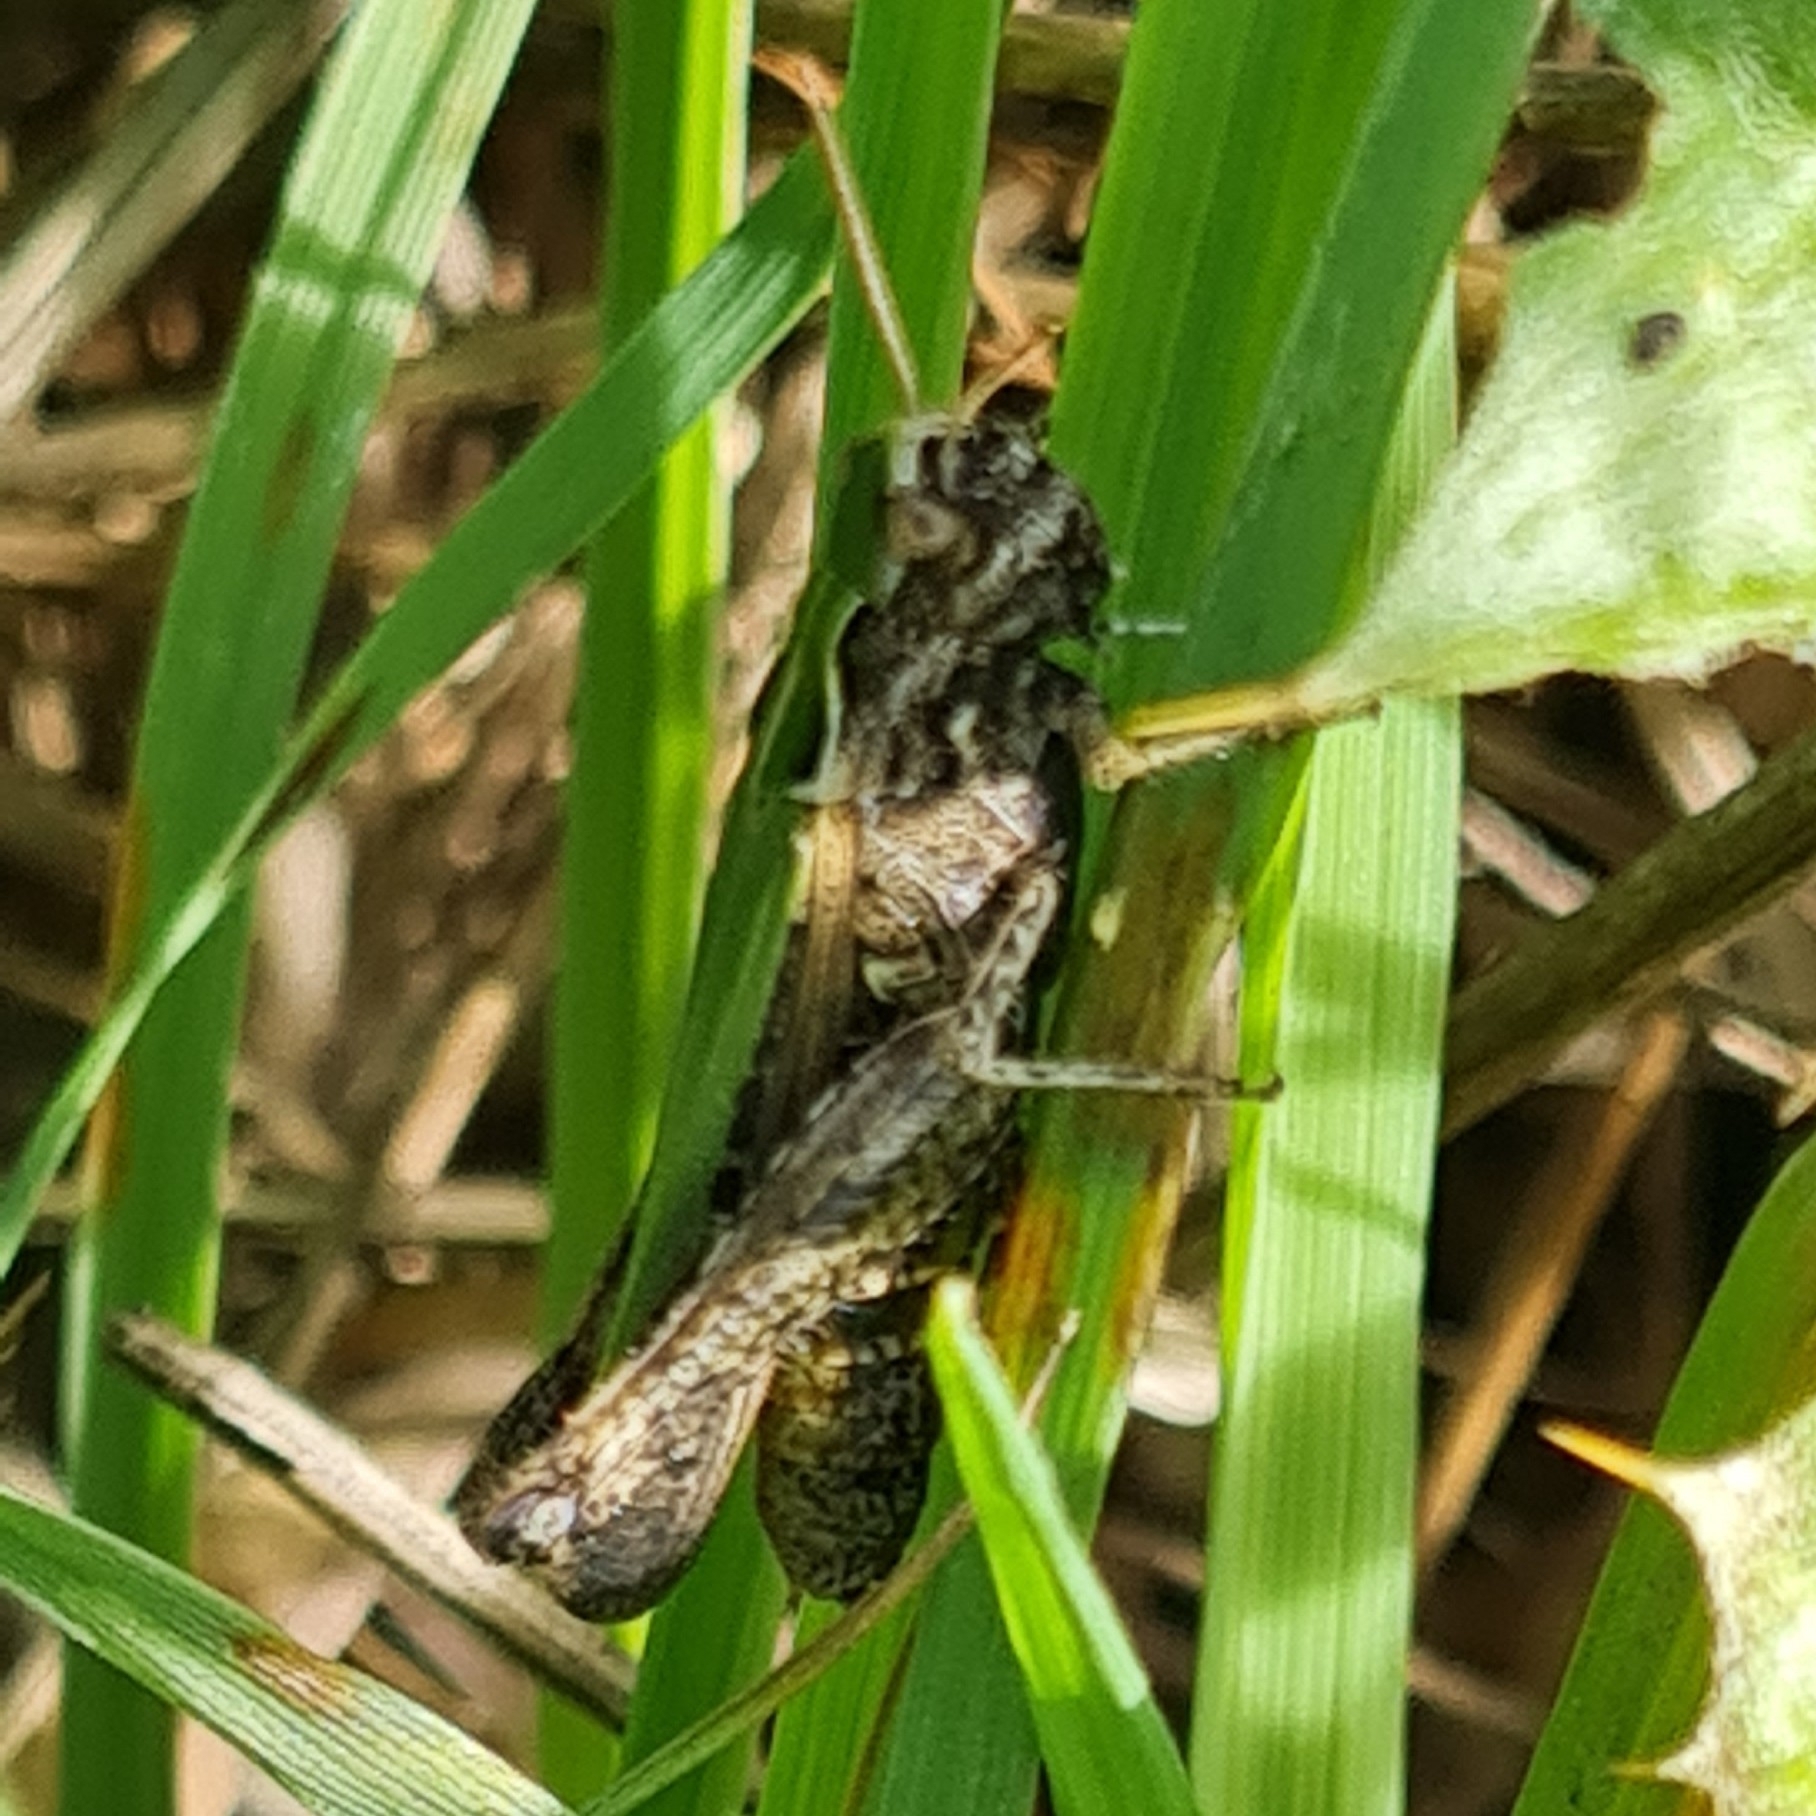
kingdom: Animalia
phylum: Arthropoda
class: Insecta
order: Orthoptera
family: Acrididae
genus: Omocestus
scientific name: Omocestus rufipes
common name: Woodland grasshopper
